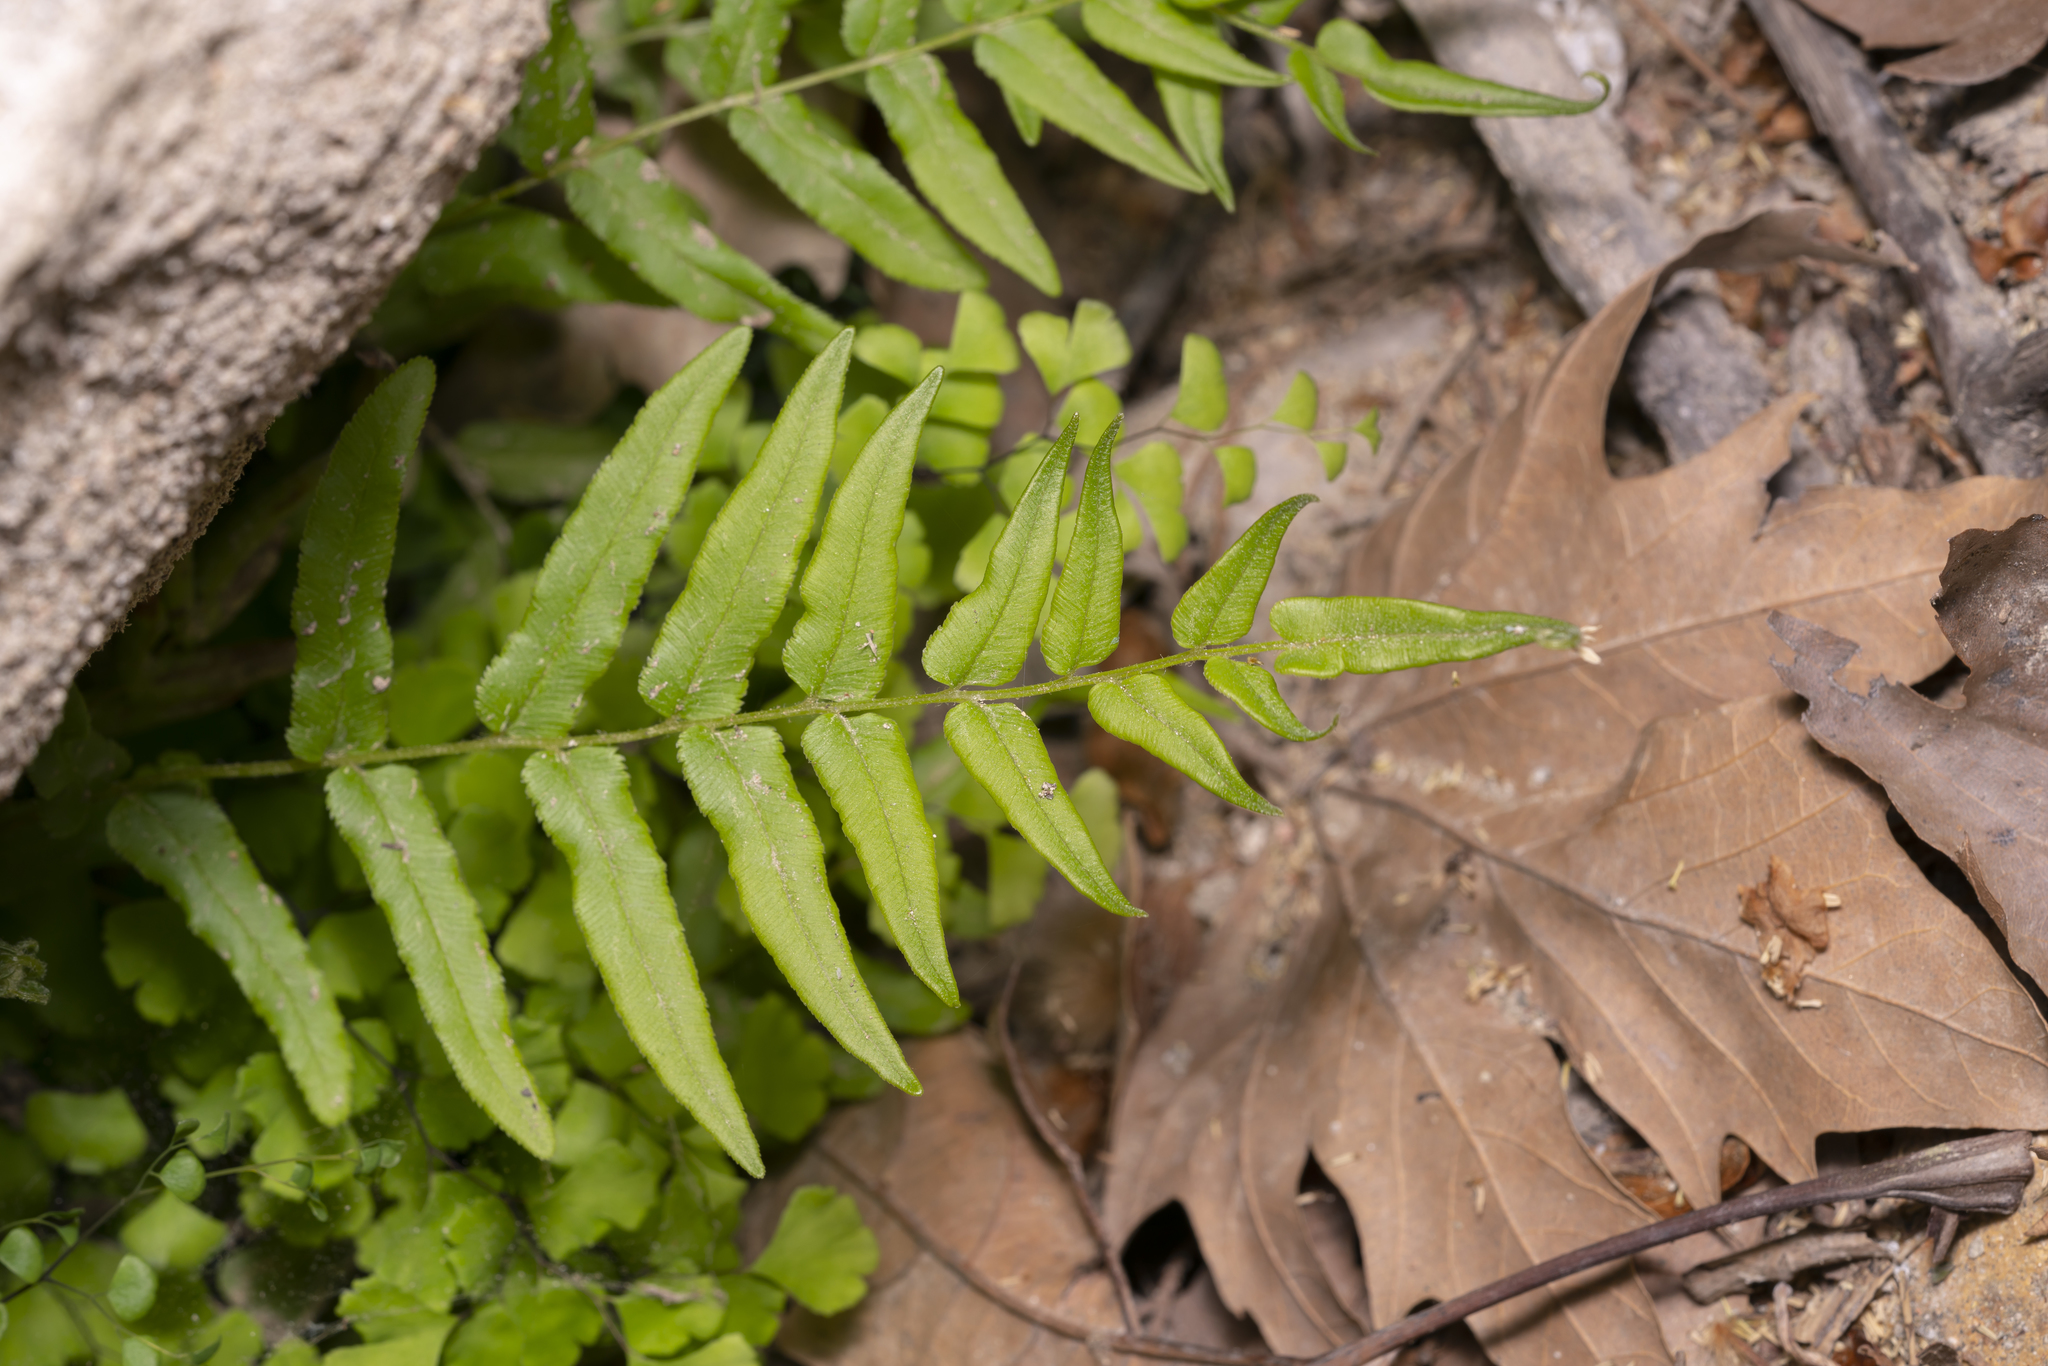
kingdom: Plantae
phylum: Tracheophyta
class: Polypodiopsida
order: Polypodiales
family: Pteridaceae
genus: Pteris
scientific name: Pteris vittata
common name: Ladder brake
